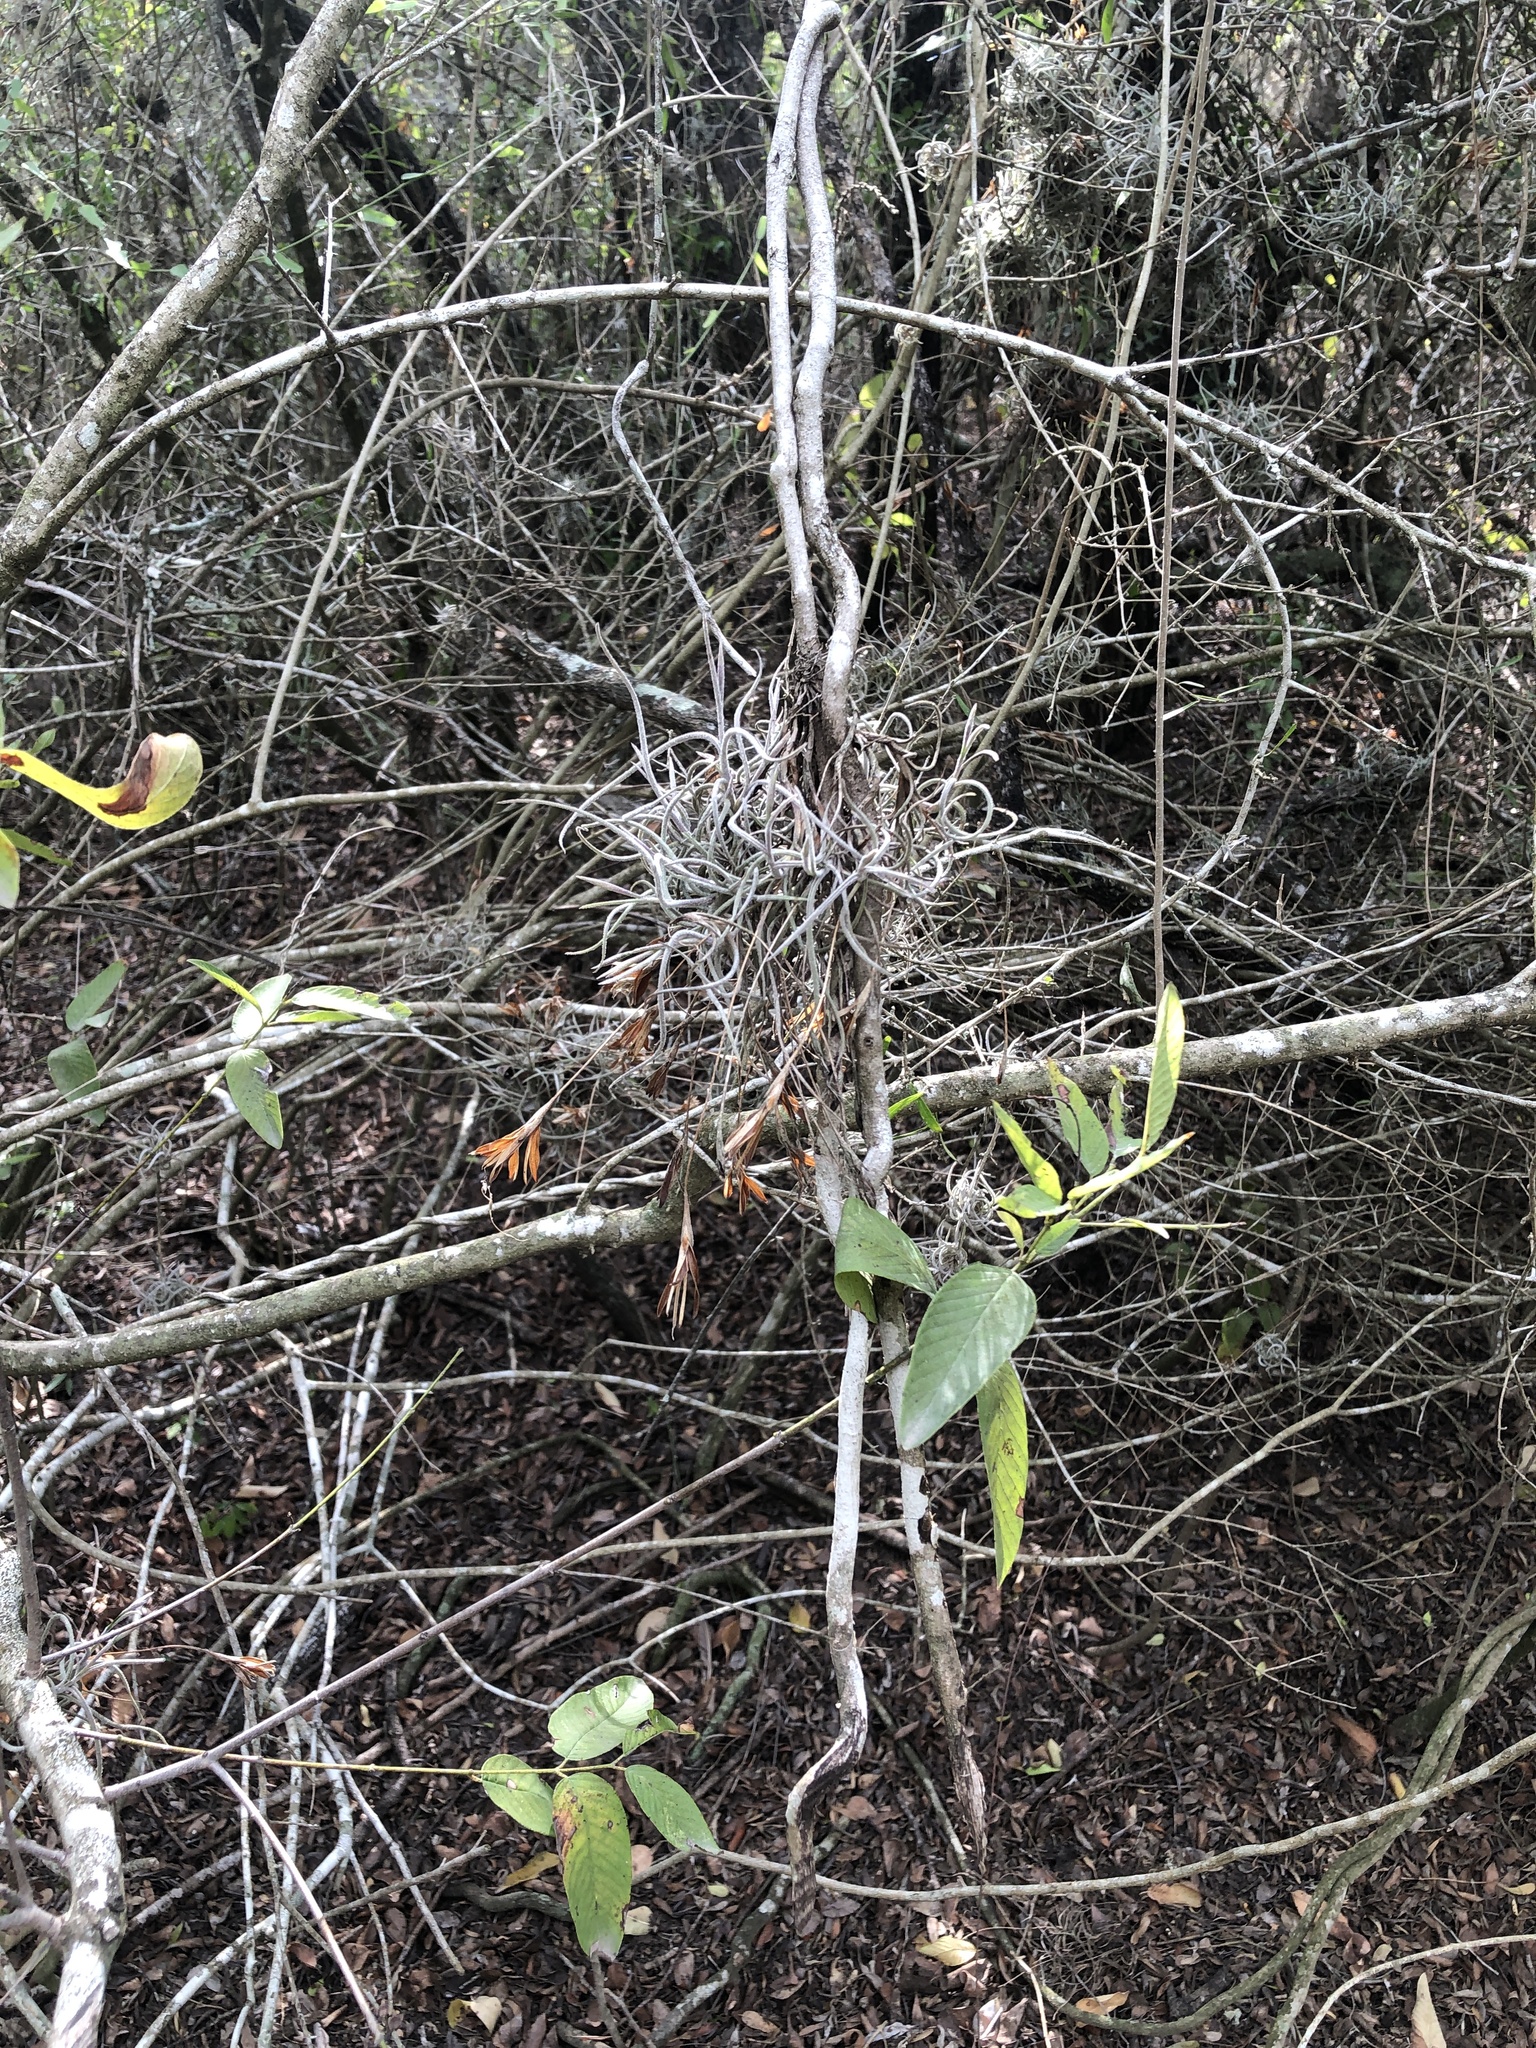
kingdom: Plantae
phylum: Tracheophyta
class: Liliopsida
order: Poales
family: Bromeliaceae
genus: Tillandsia
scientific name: Tillandsia recurvata
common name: Small ballmoss
